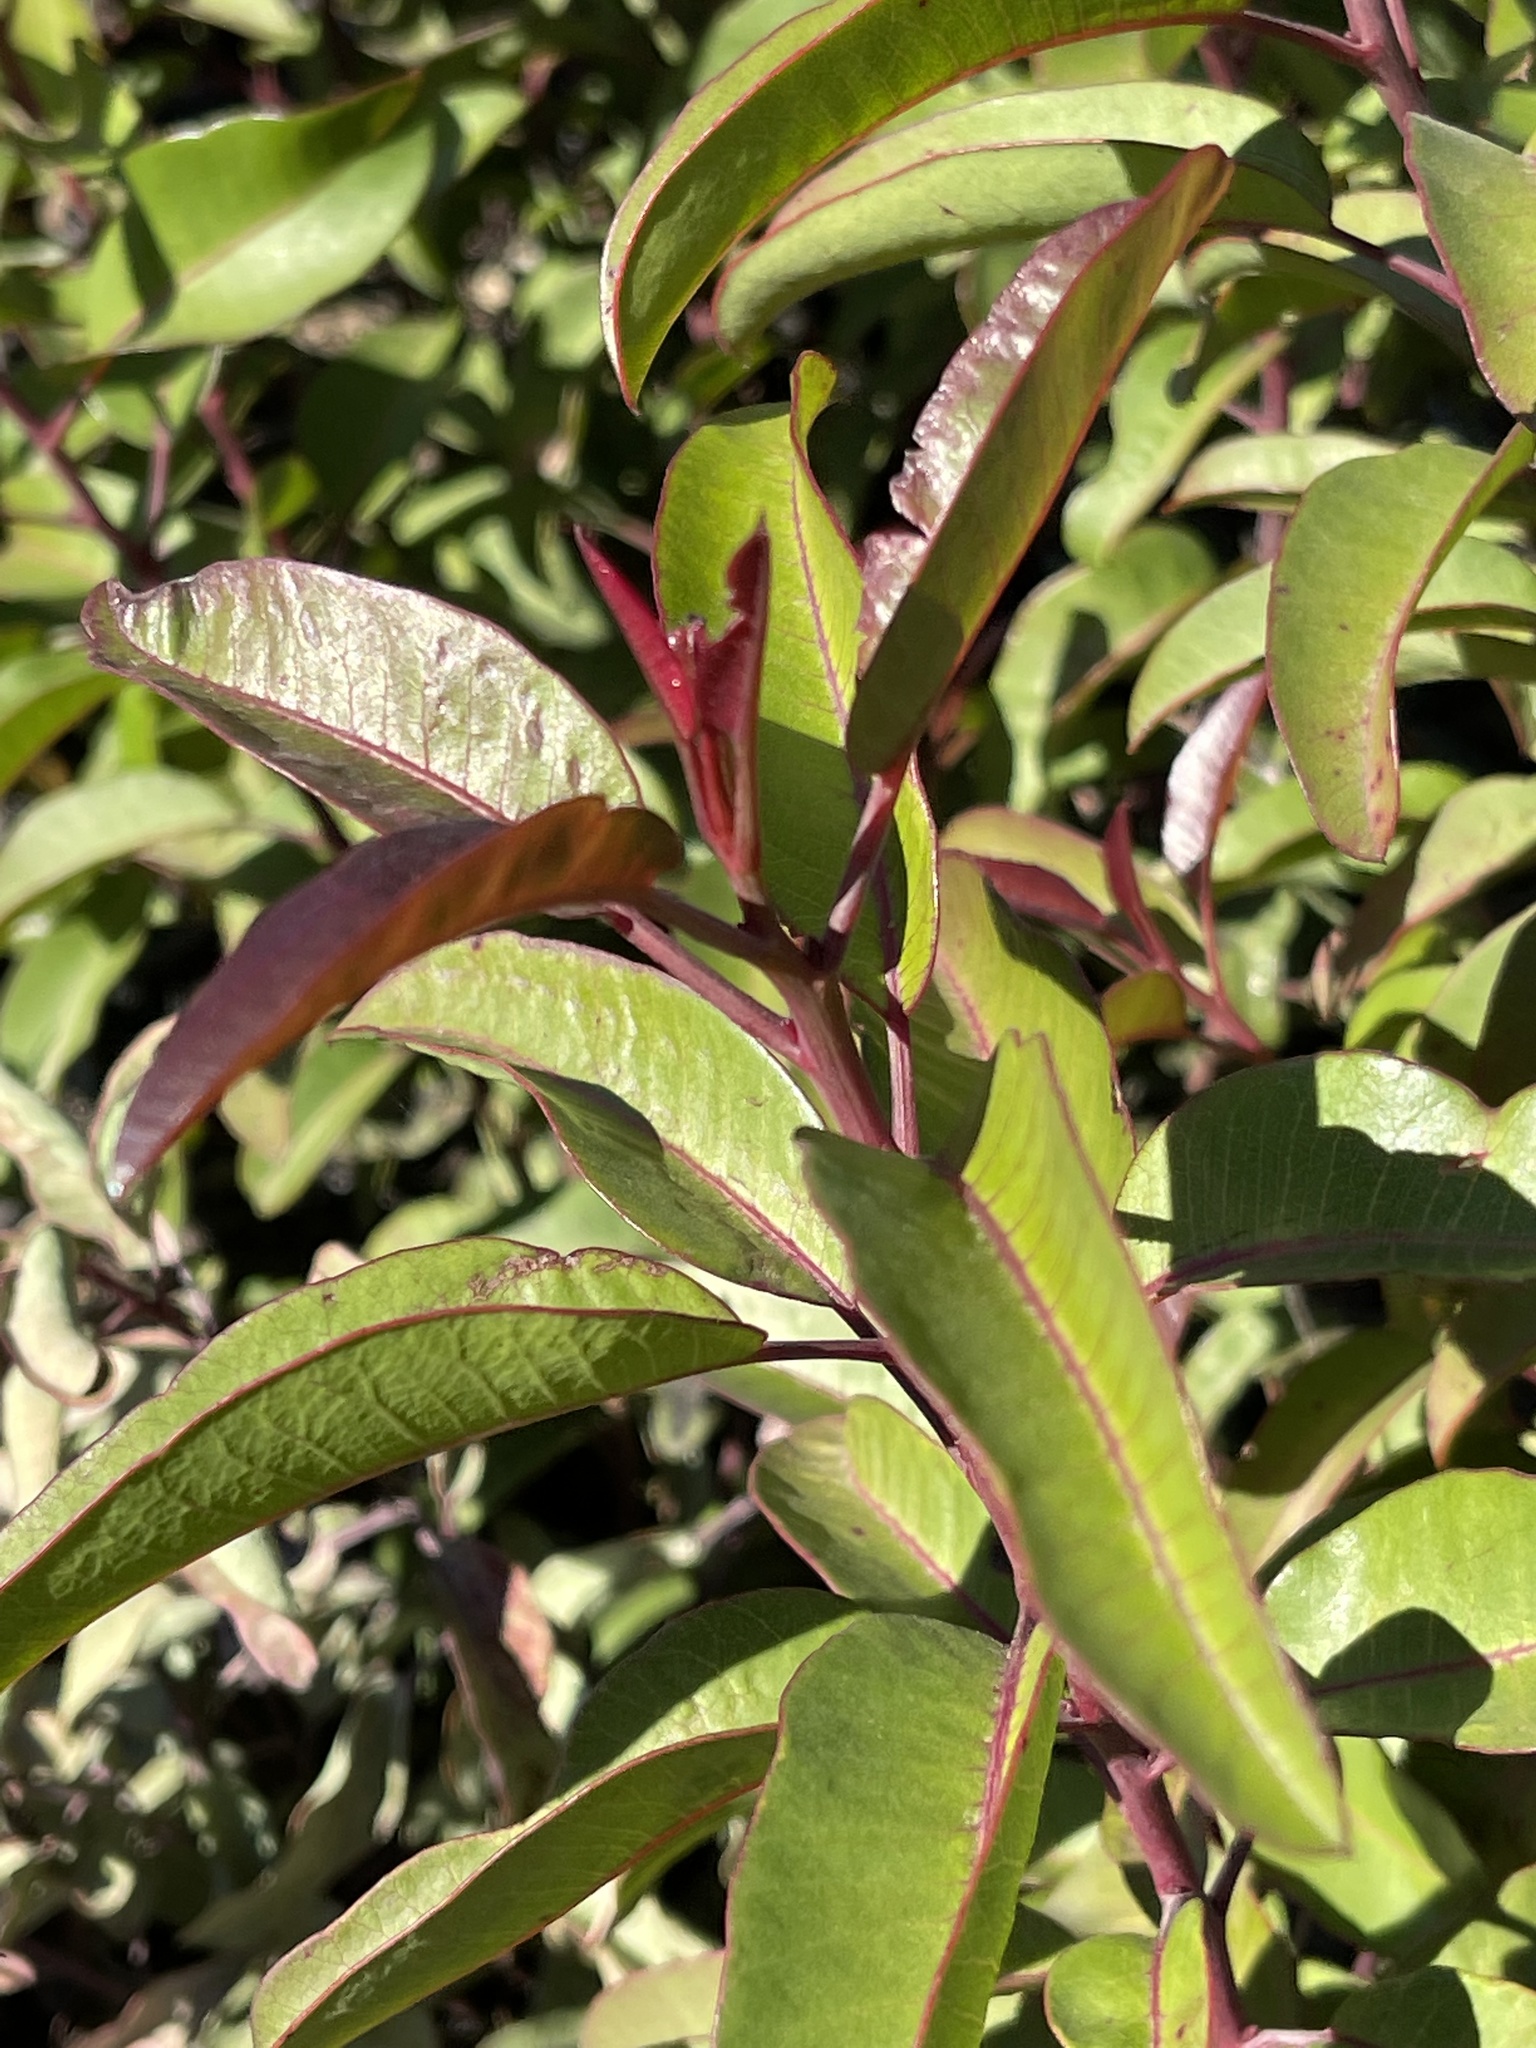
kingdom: Plantae
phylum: Tracheophyta
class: Magnoliopsida
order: Sapindales
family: Anacardiaceae
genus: Malosma
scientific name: Malosma laurina
